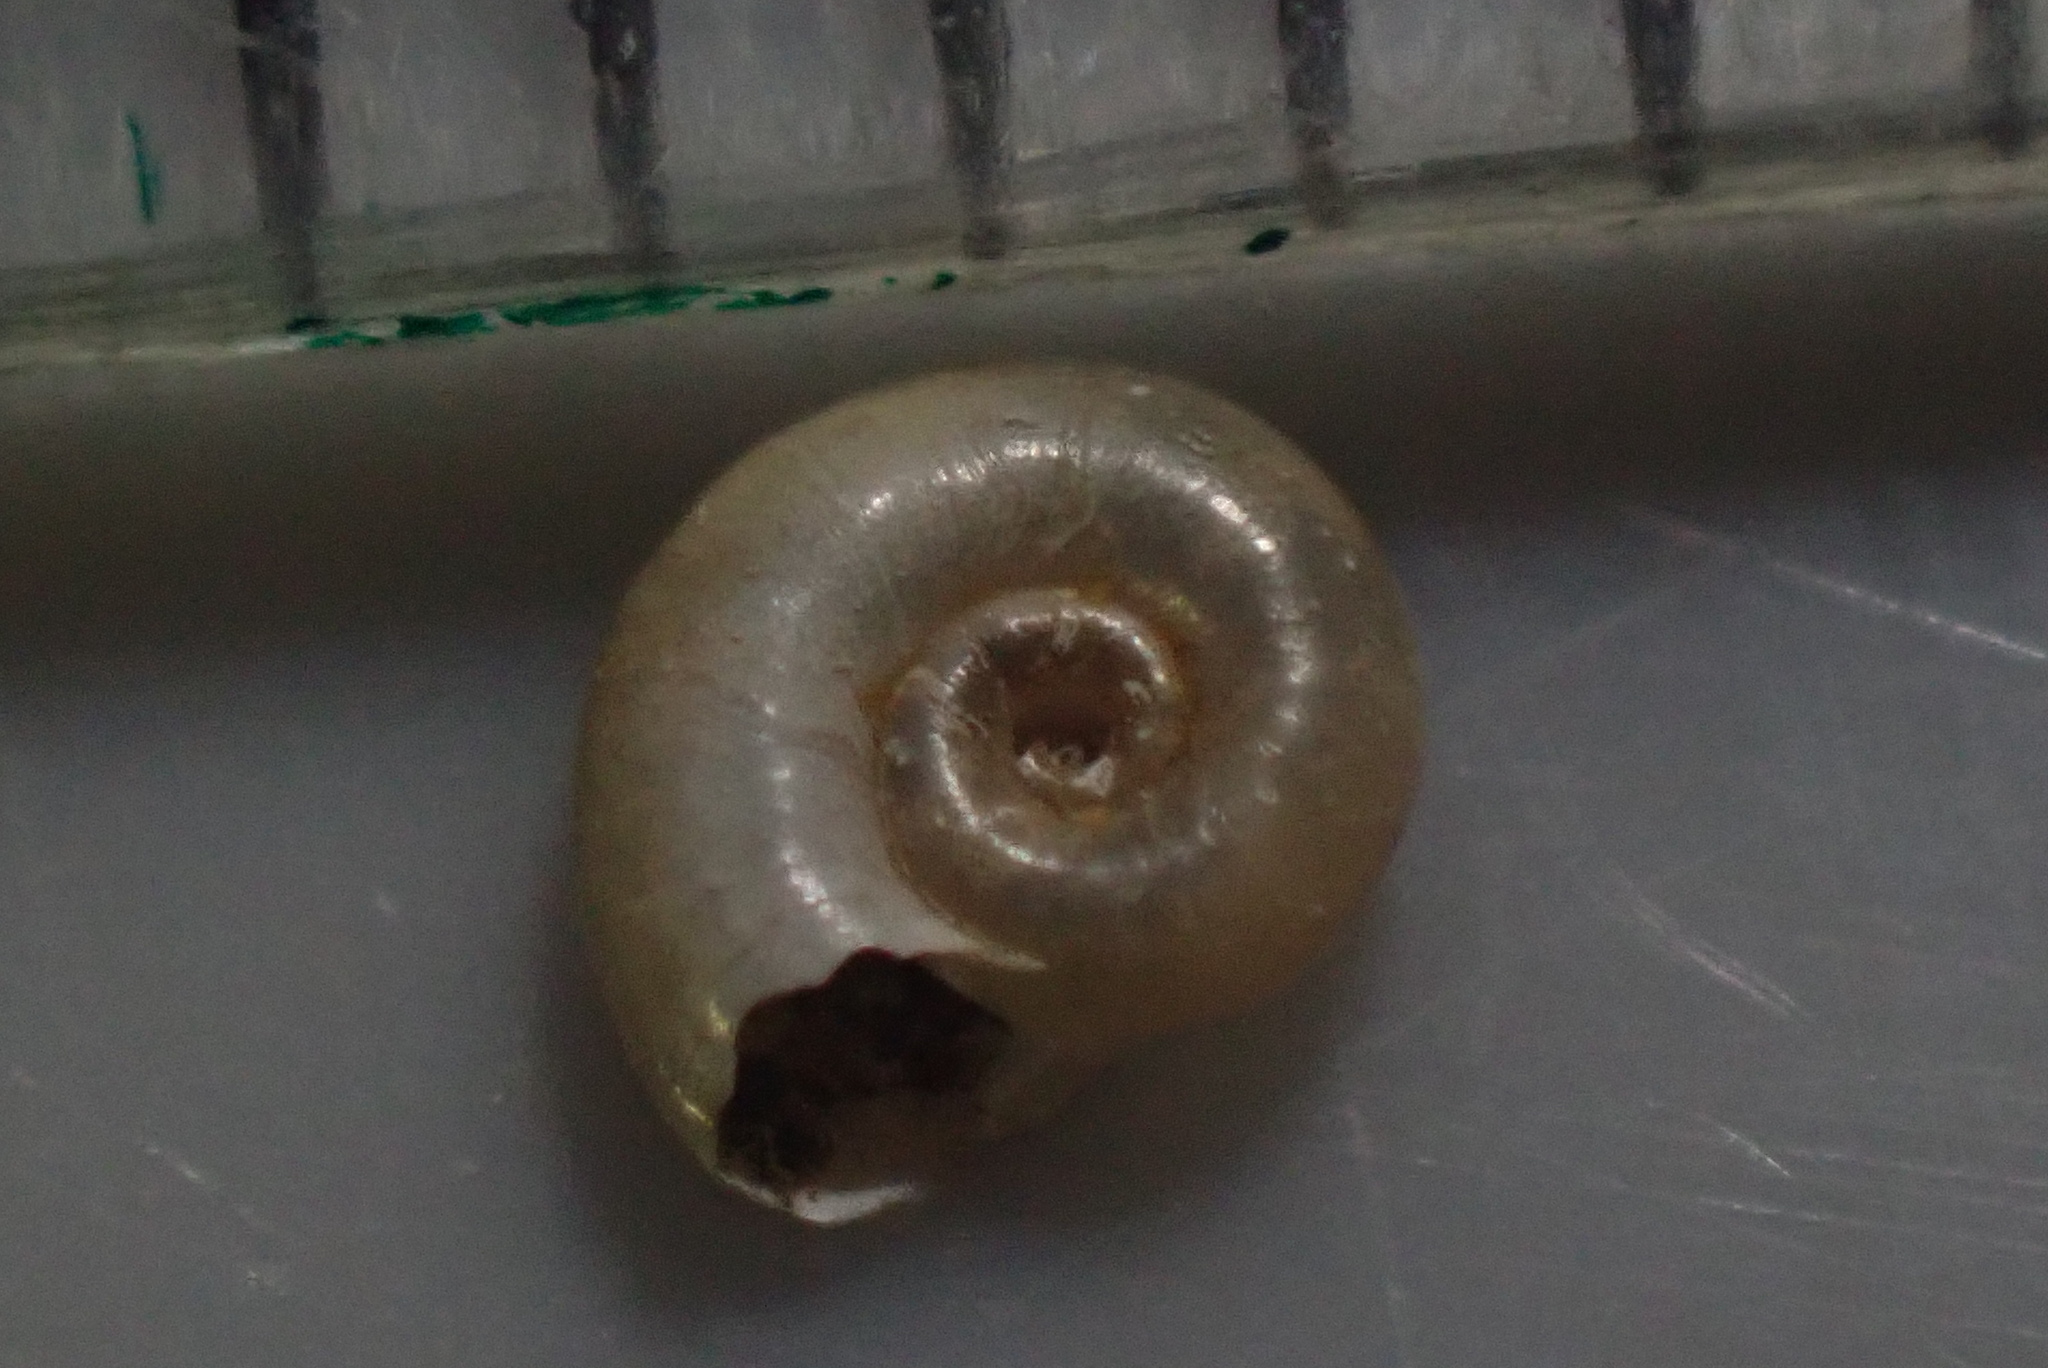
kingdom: Animalia
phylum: Mollusca
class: Gastropoda
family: Planorbidae
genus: Gyraulus
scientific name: Gyraulus corinna
